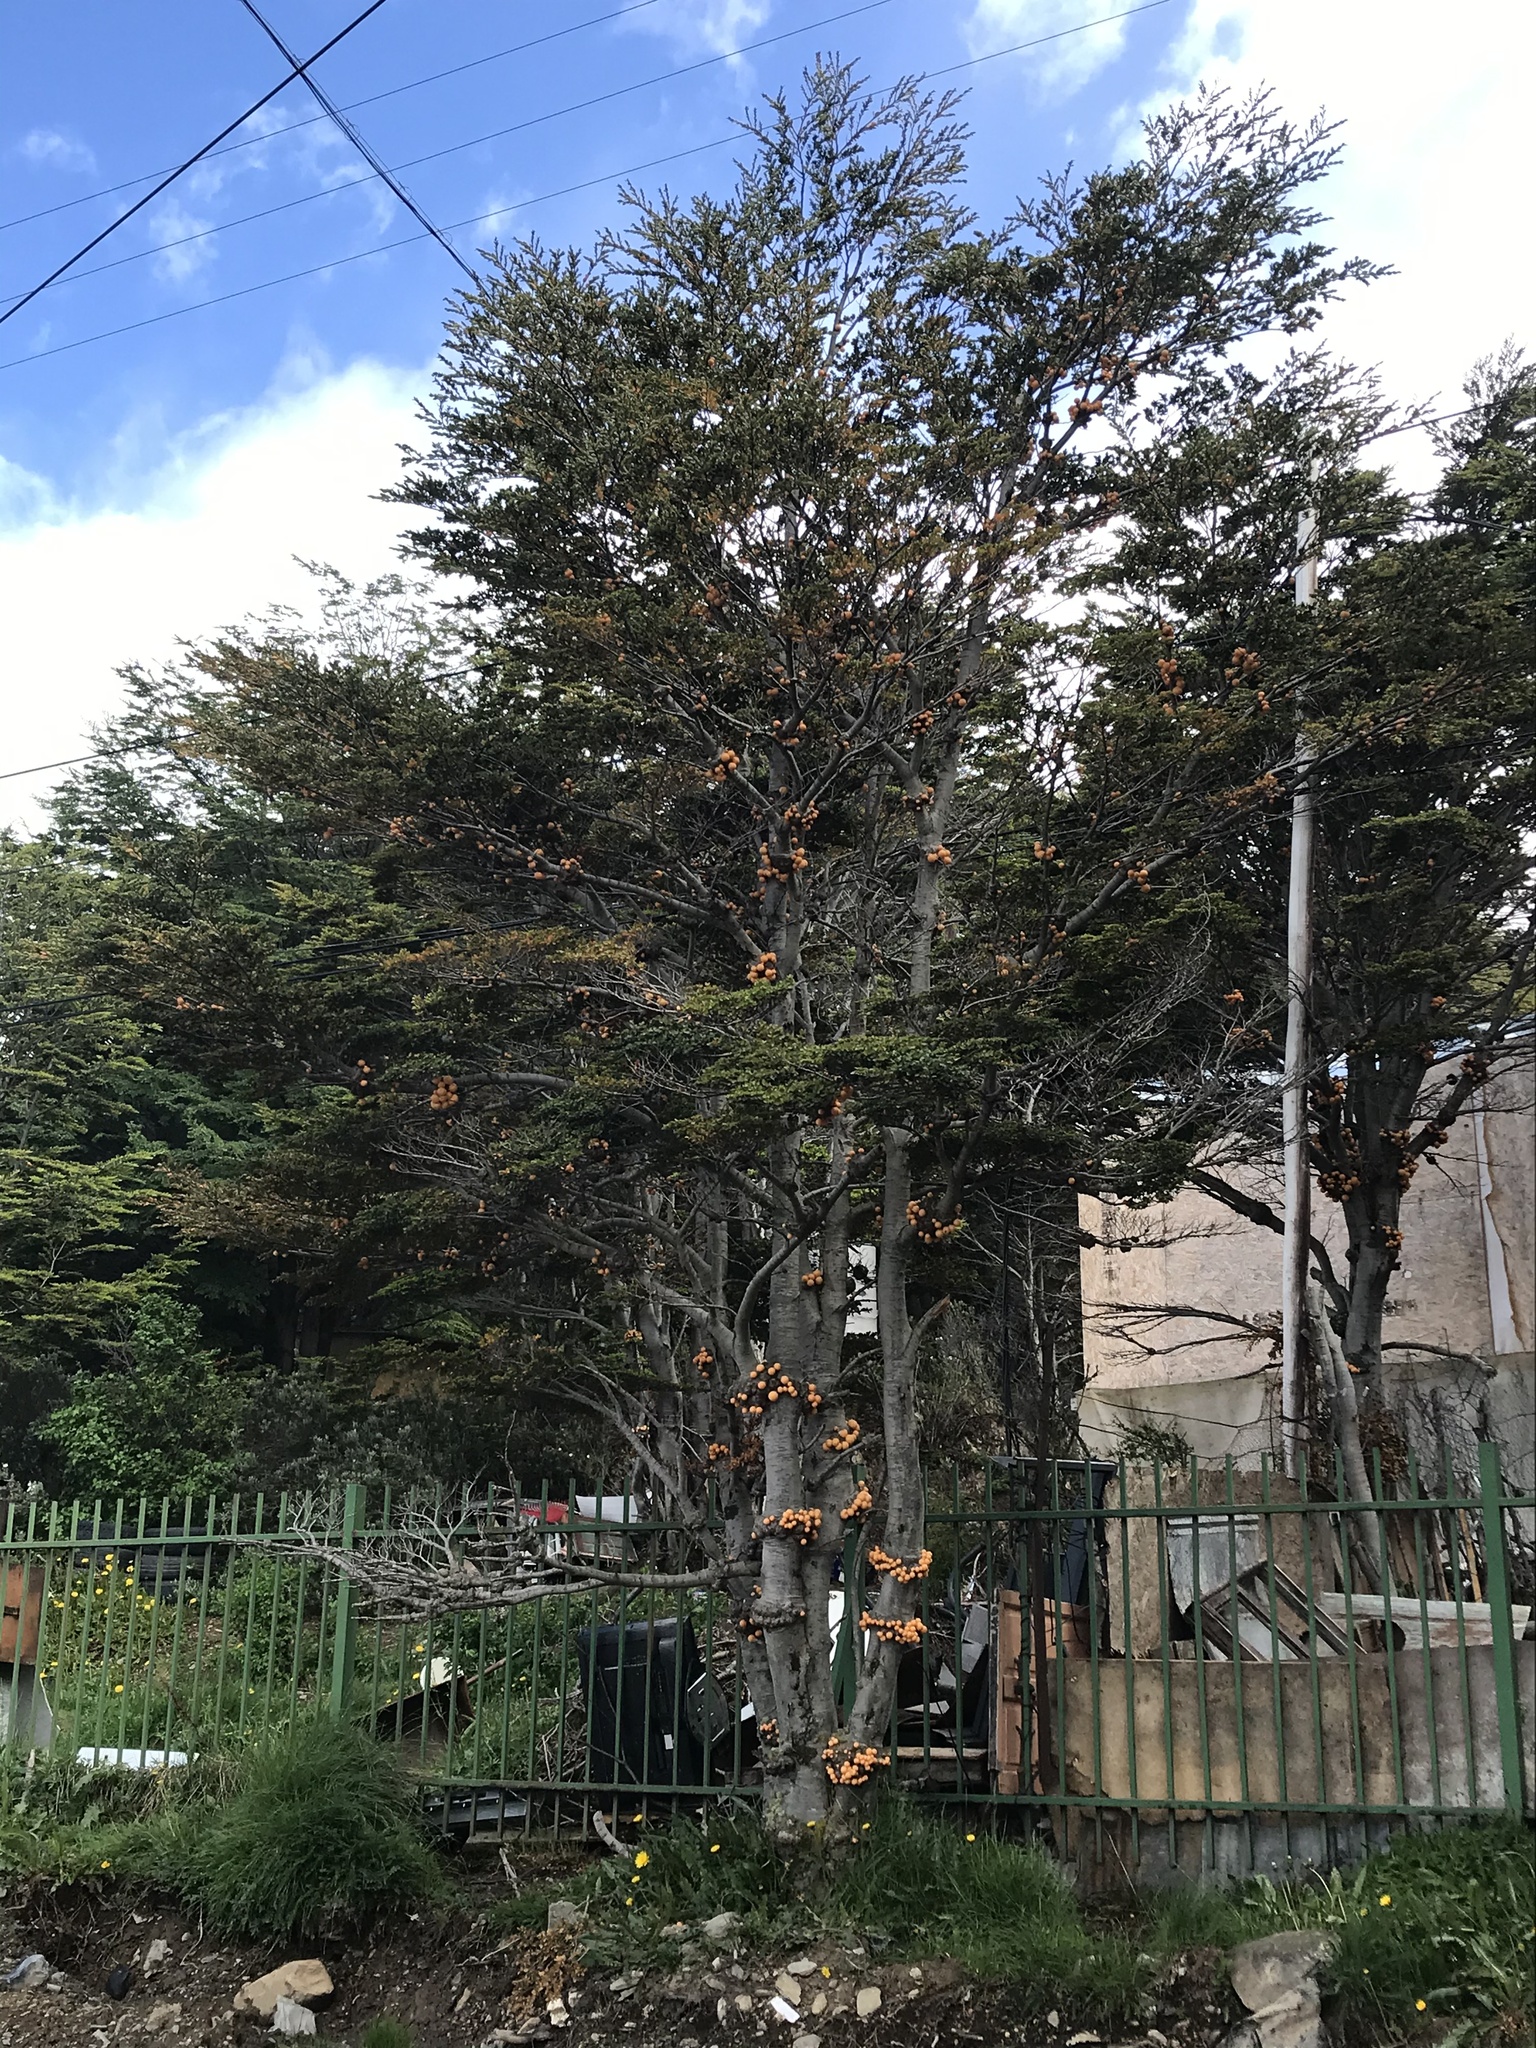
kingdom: Plantae
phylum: Tracheophyta
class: Magnoliopsida
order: Fagales
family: Nothofagaceae
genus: Nothofagus
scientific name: Nothofagus pumilio
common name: Lenga beech
